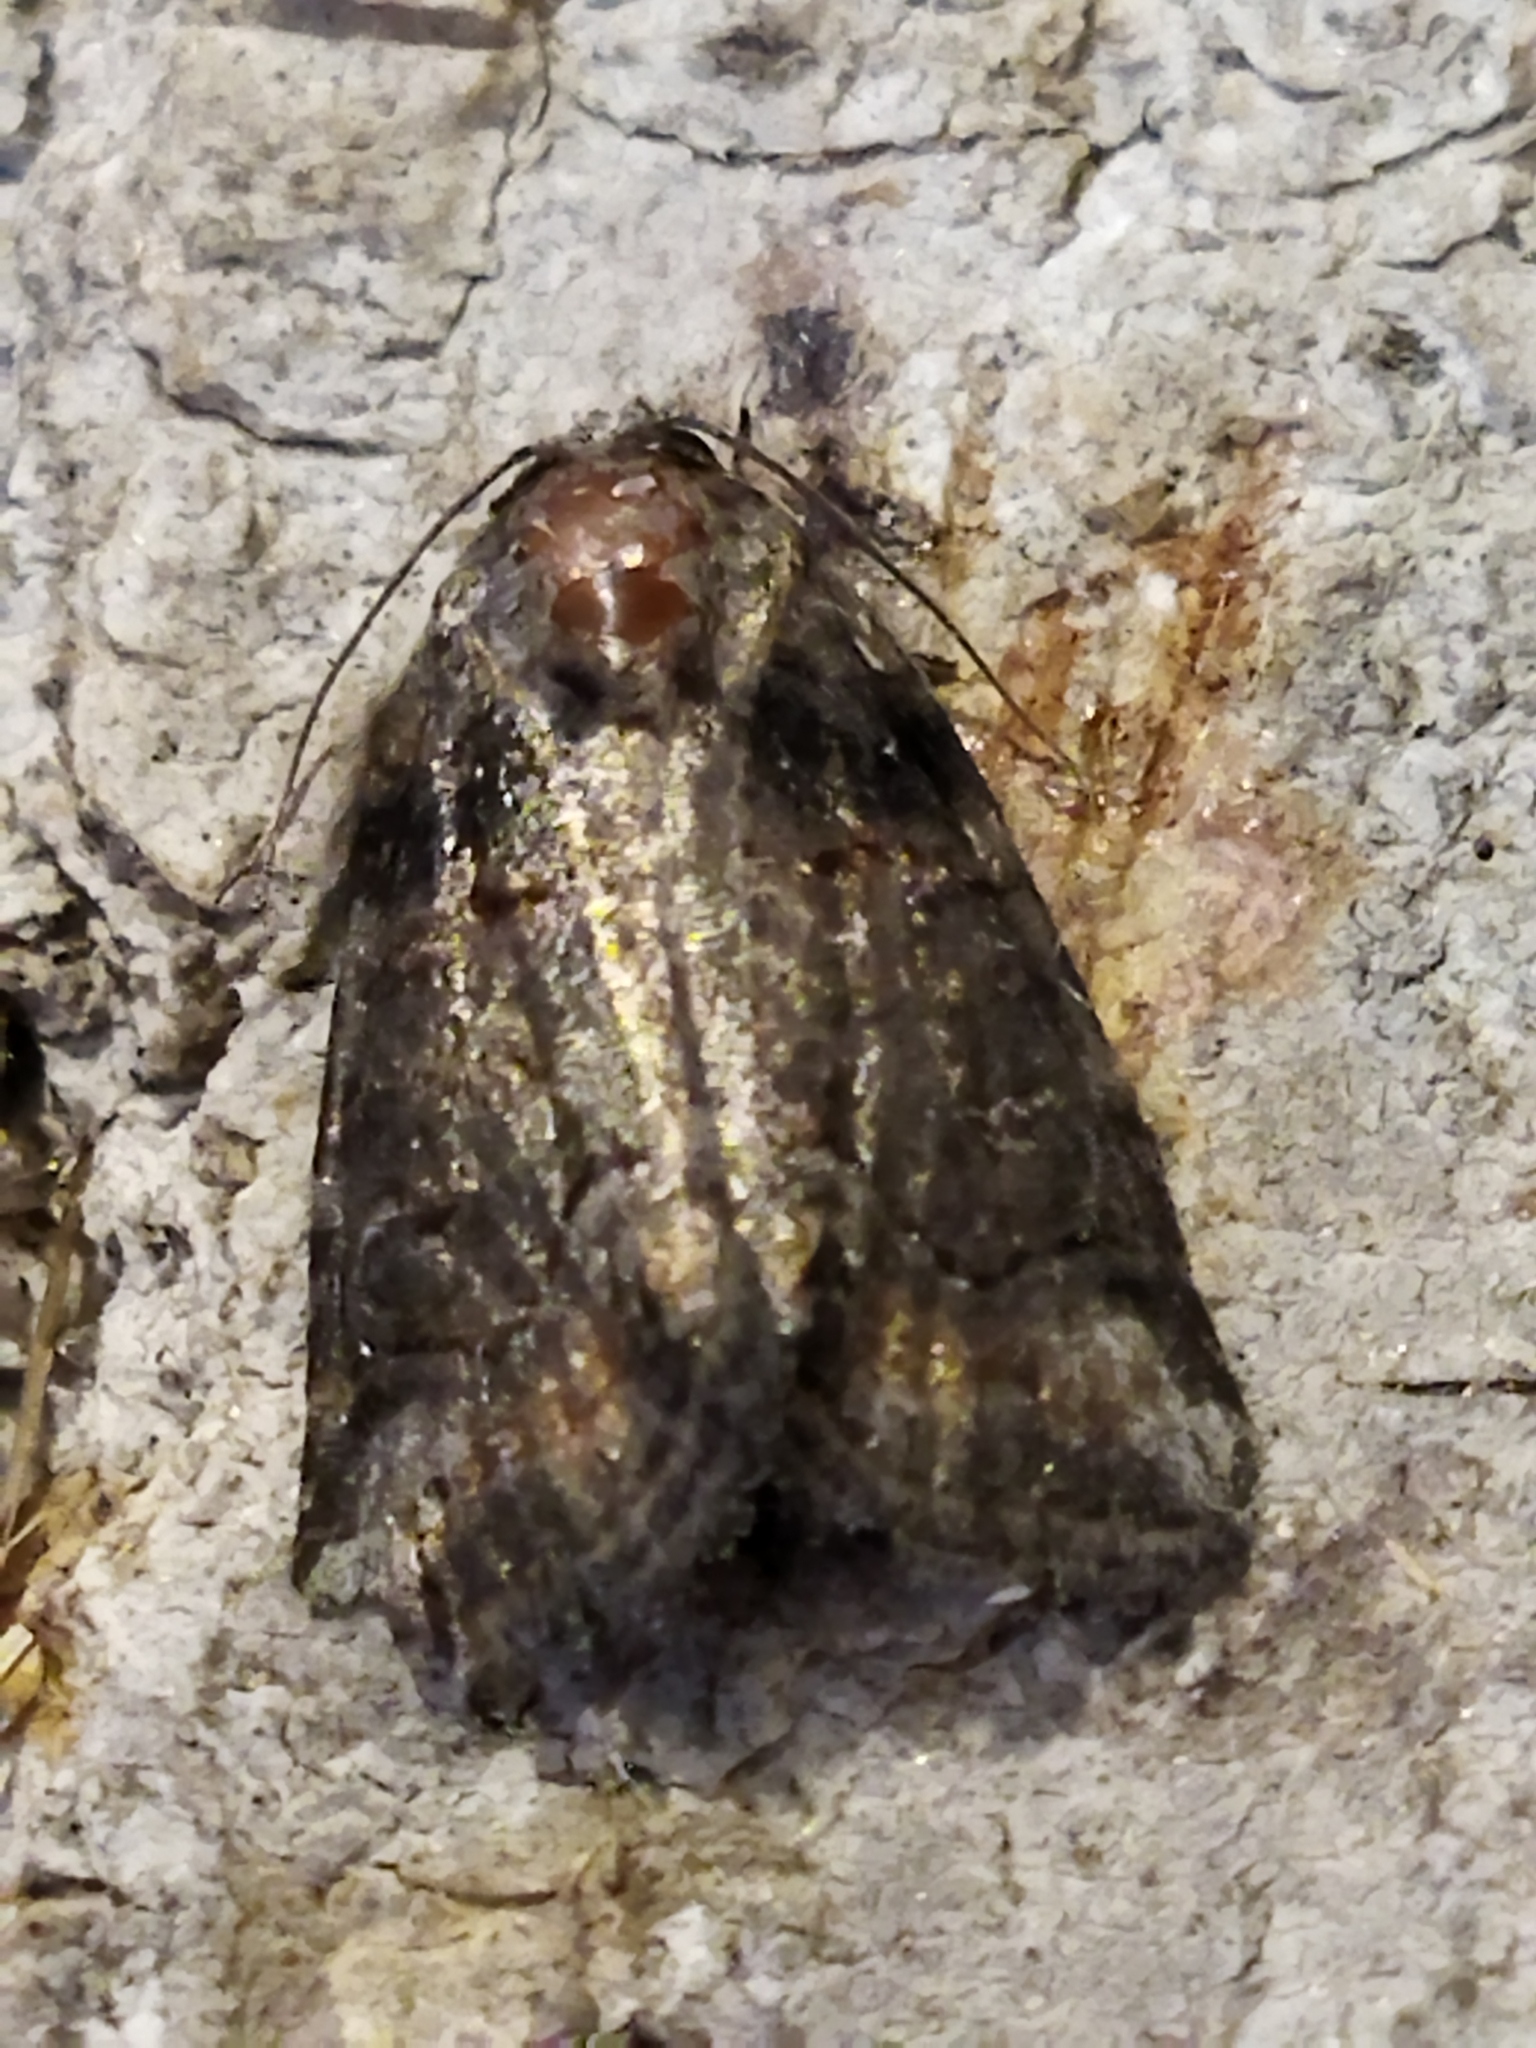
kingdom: Animalia
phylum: Arthropoda
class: Insecta
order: Lepidoptera
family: Noctuidae
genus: Bryophila
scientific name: Bryophila tephrocharis
